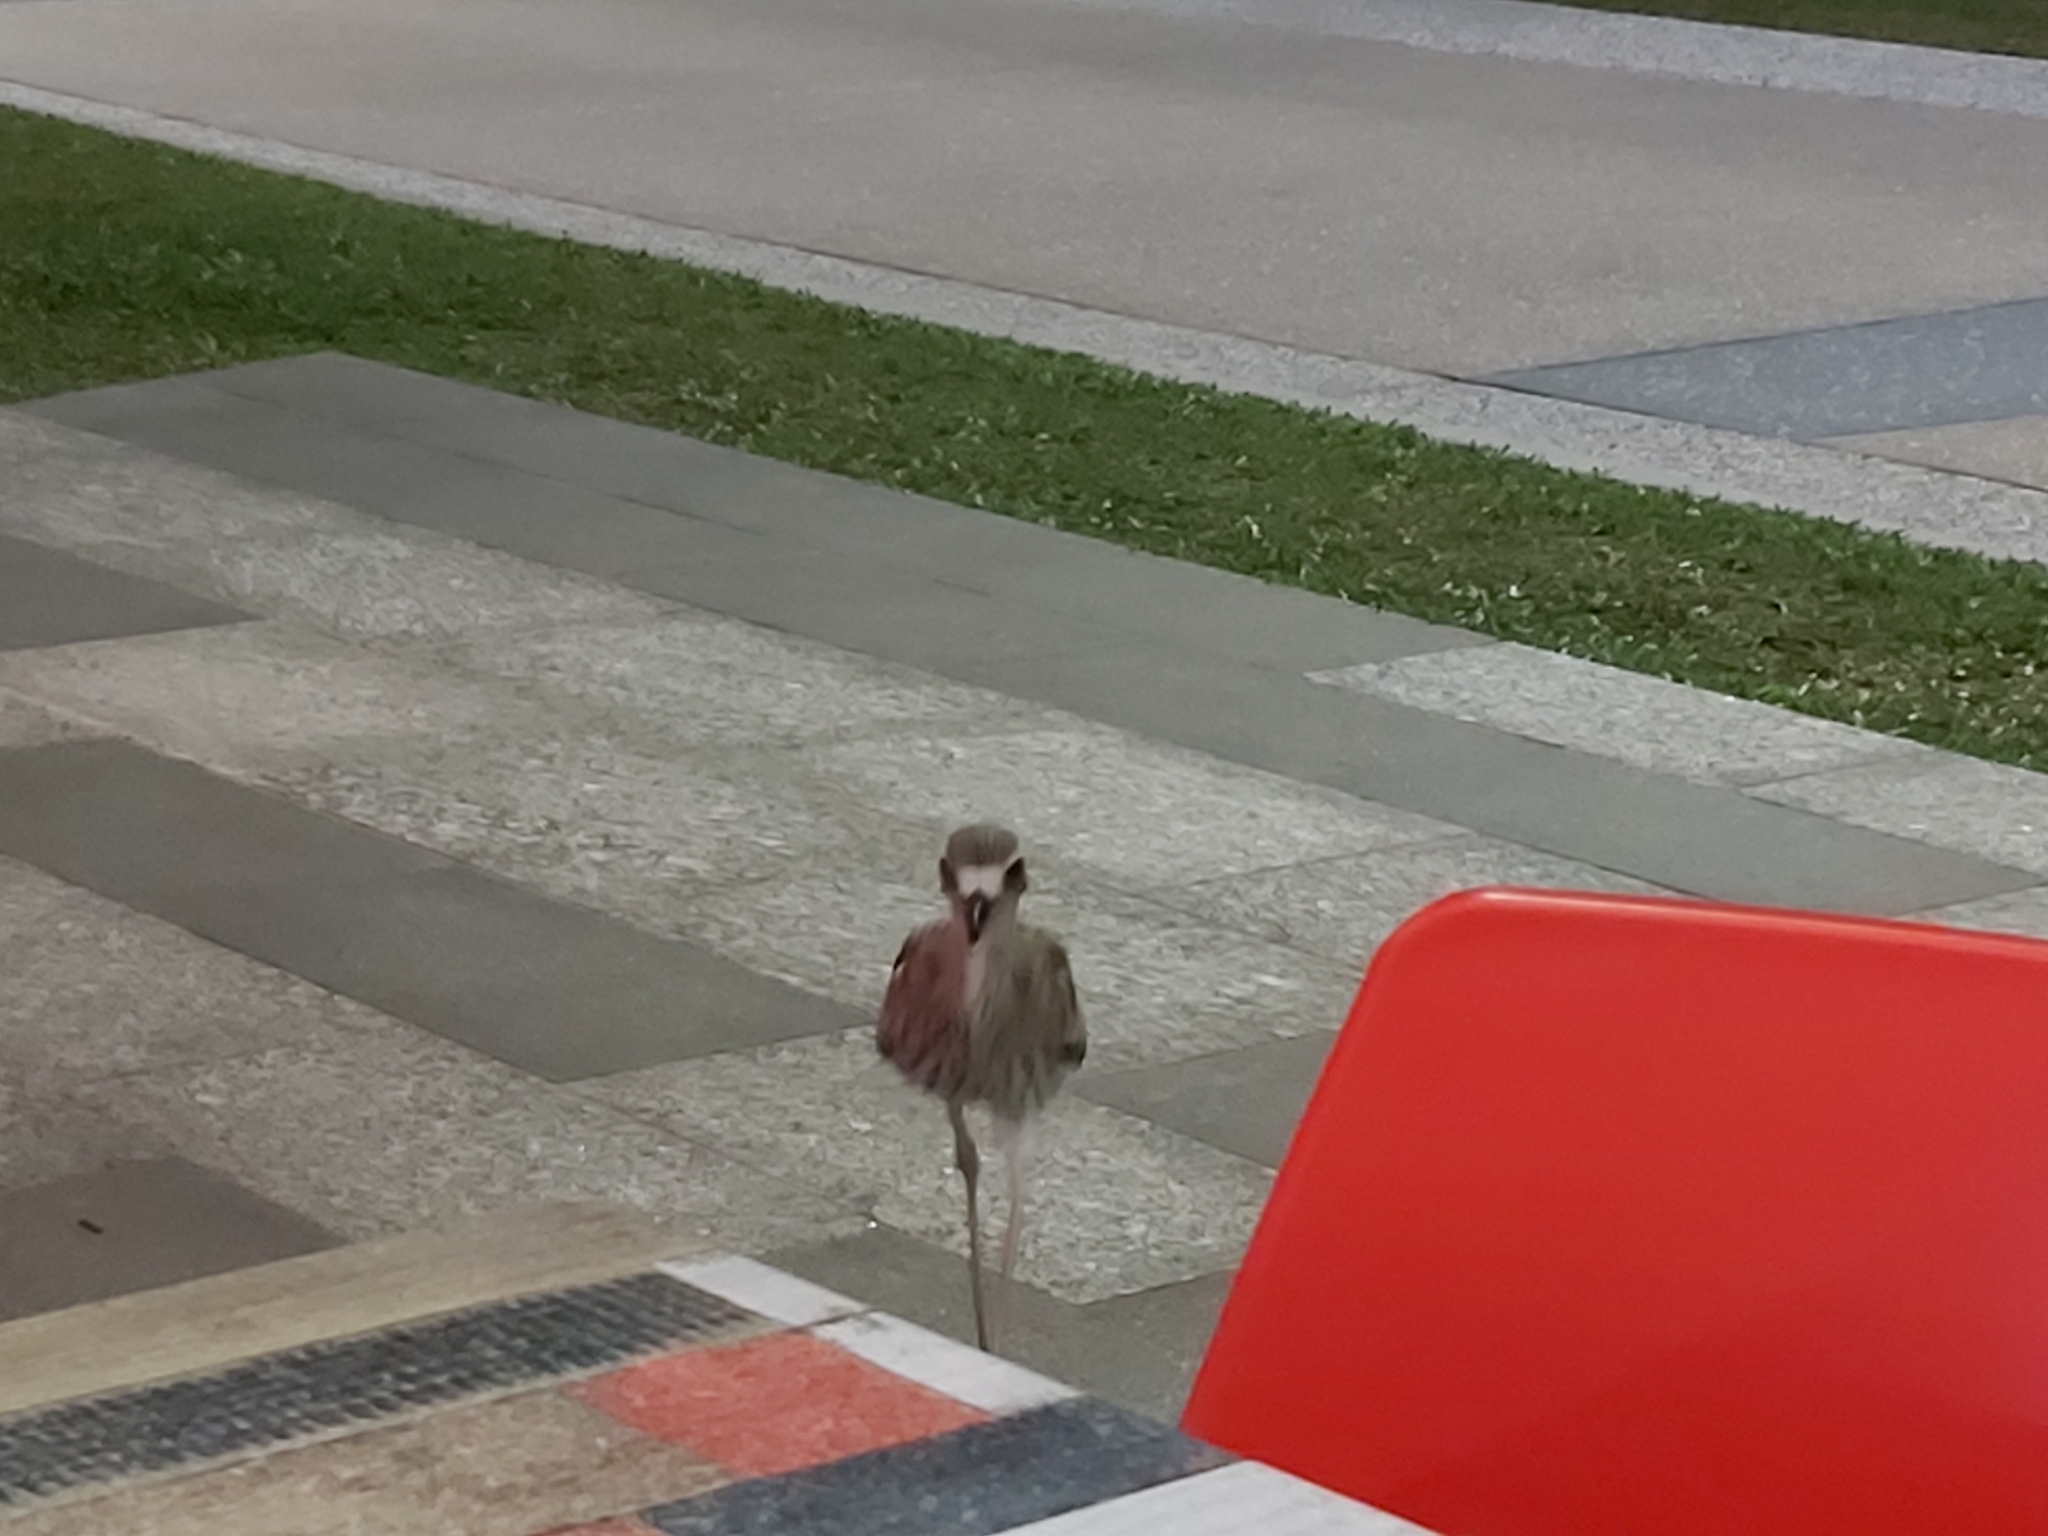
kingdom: Animalia
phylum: Chordata
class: Aves
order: Charadriiformes
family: Burhinidae
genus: Burhinus
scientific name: Burhinus grallarius
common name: Bush stone-curlew
